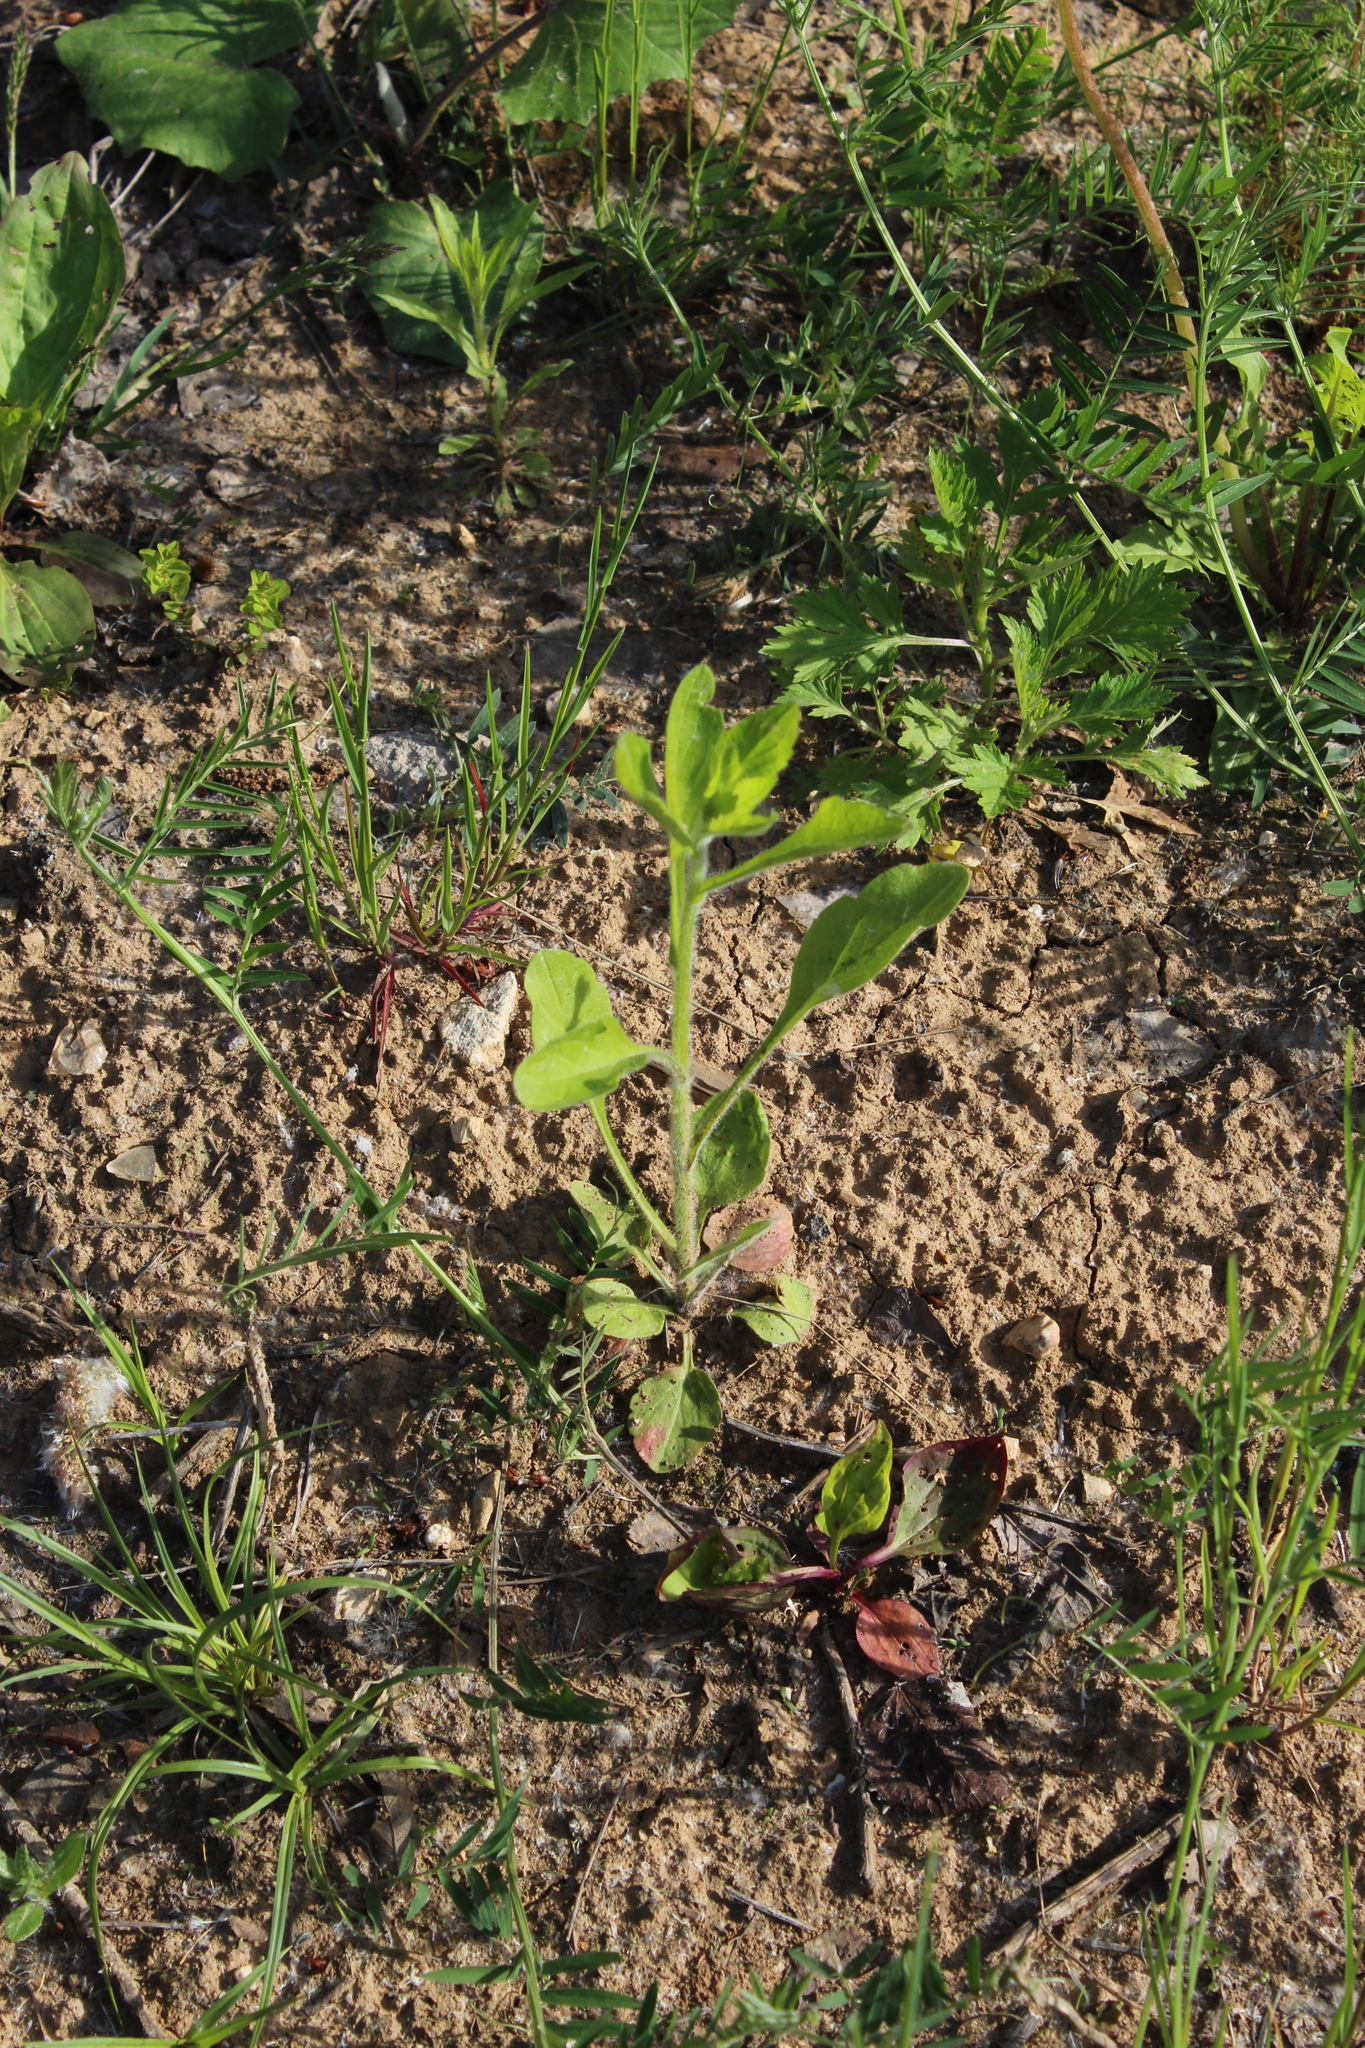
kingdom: Plantae
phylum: Tracheophyta
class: Magnoliopsida
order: Asterales
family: Asteraceae
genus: Erigeron
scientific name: Erigeron annuus
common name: Tall fleabane
